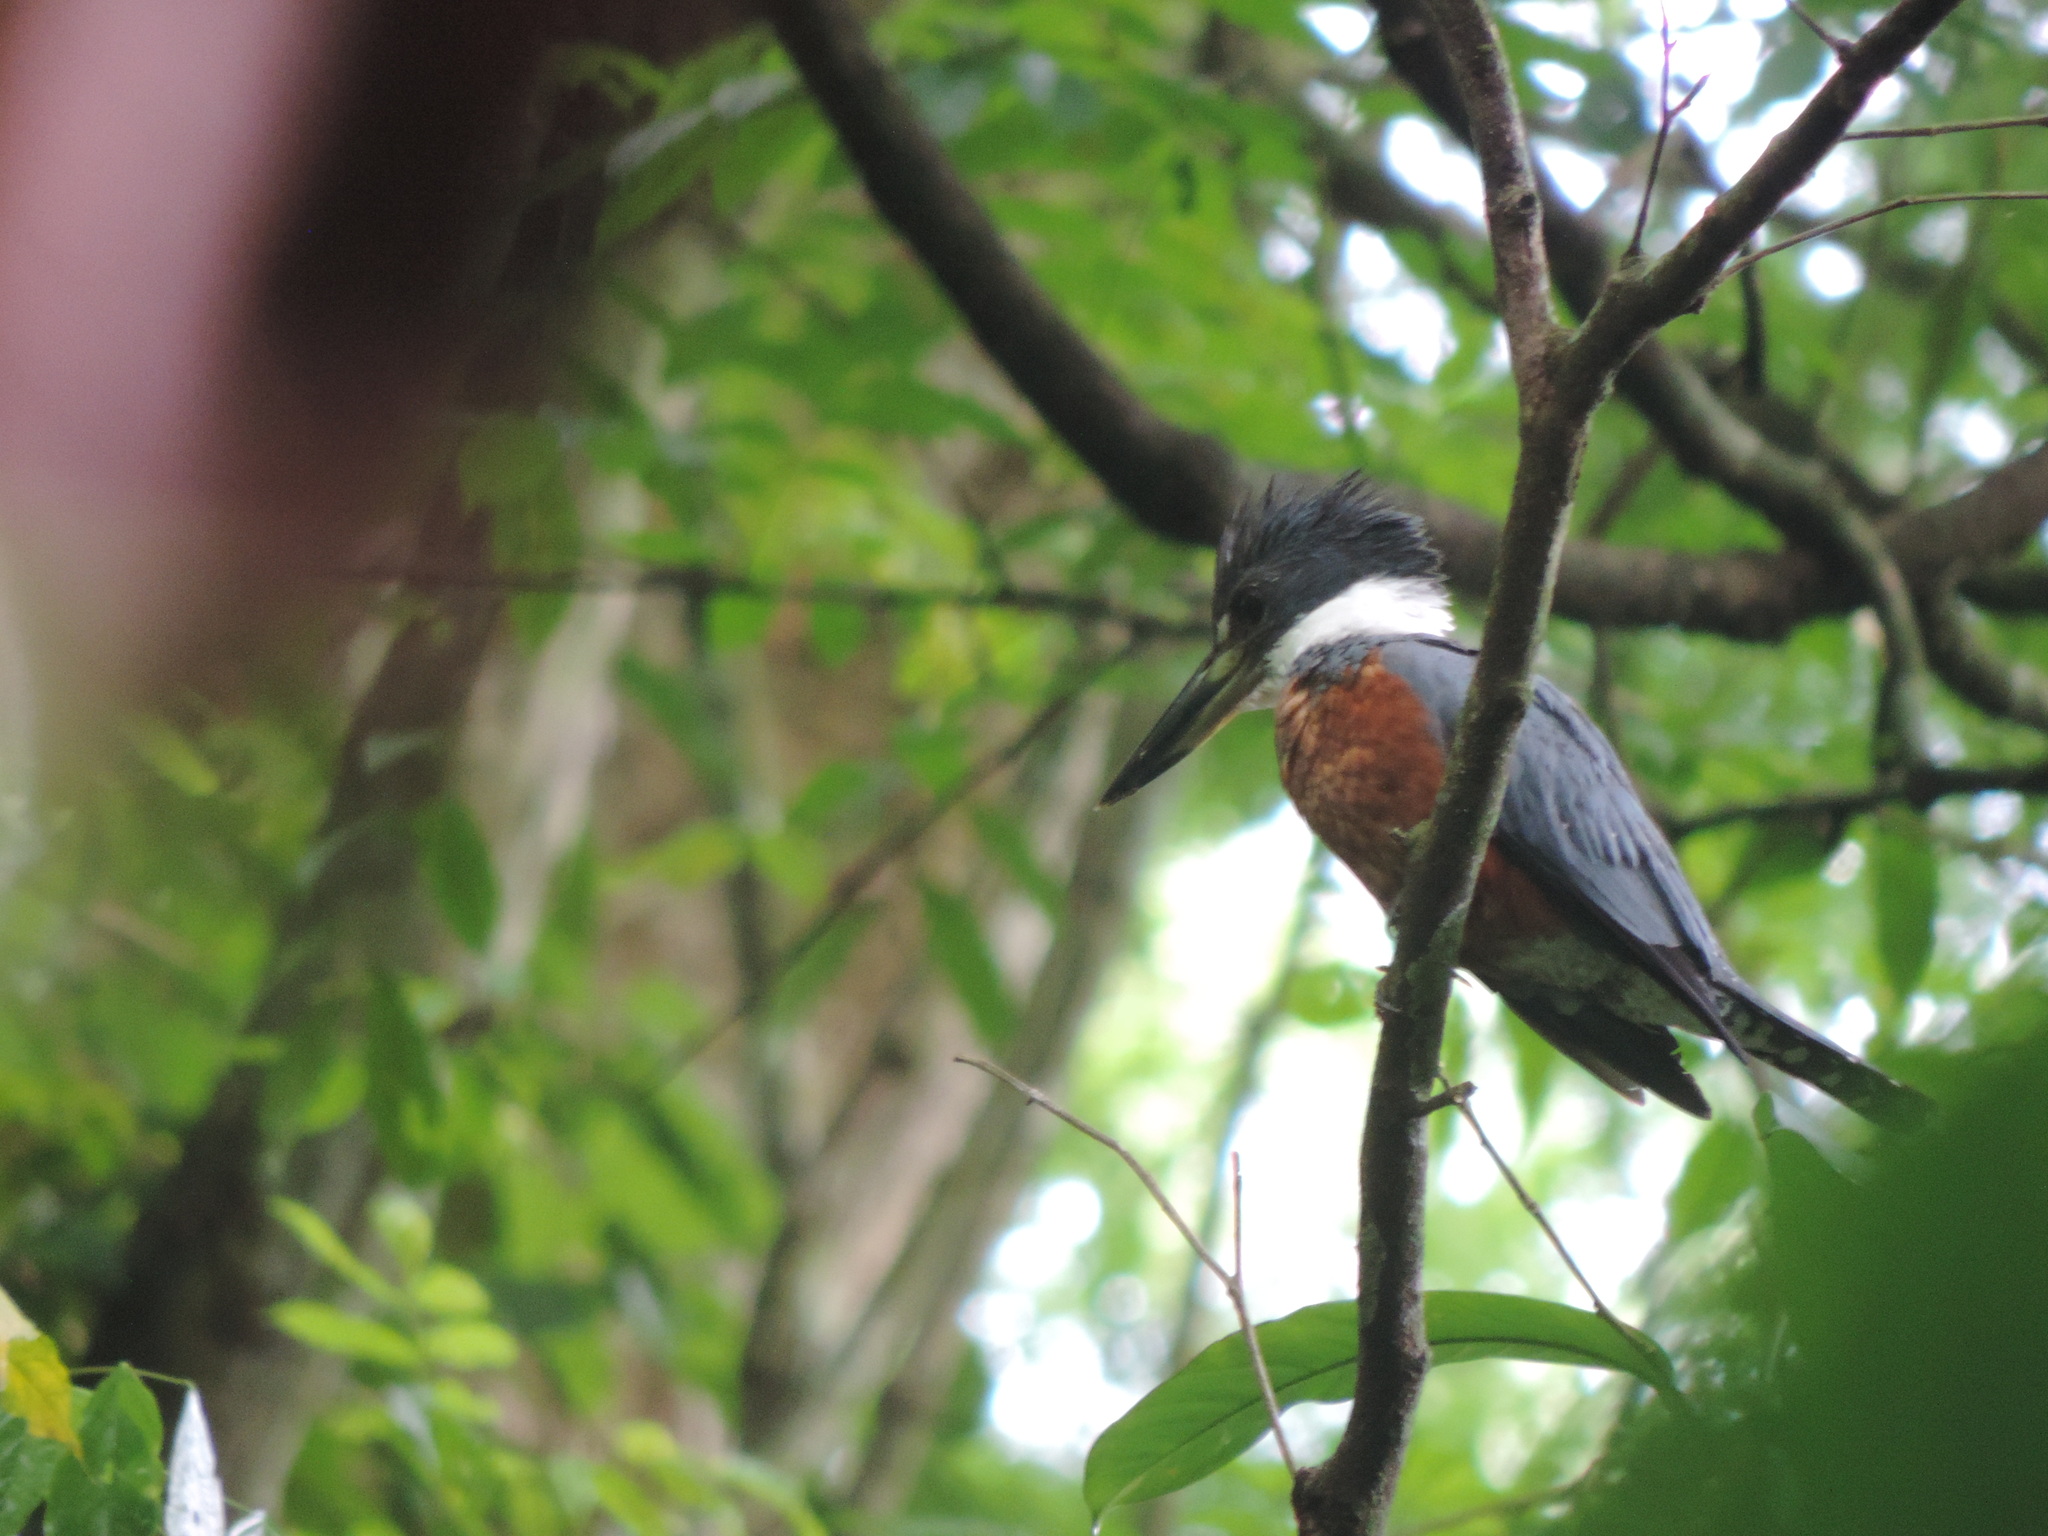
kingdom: Animalia
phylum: Chordata
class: Aves
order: Coraciiformes
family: Alcedinidae
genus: Megaceryle
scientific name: Megaceryle torquata
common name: Ringed kingfisher
